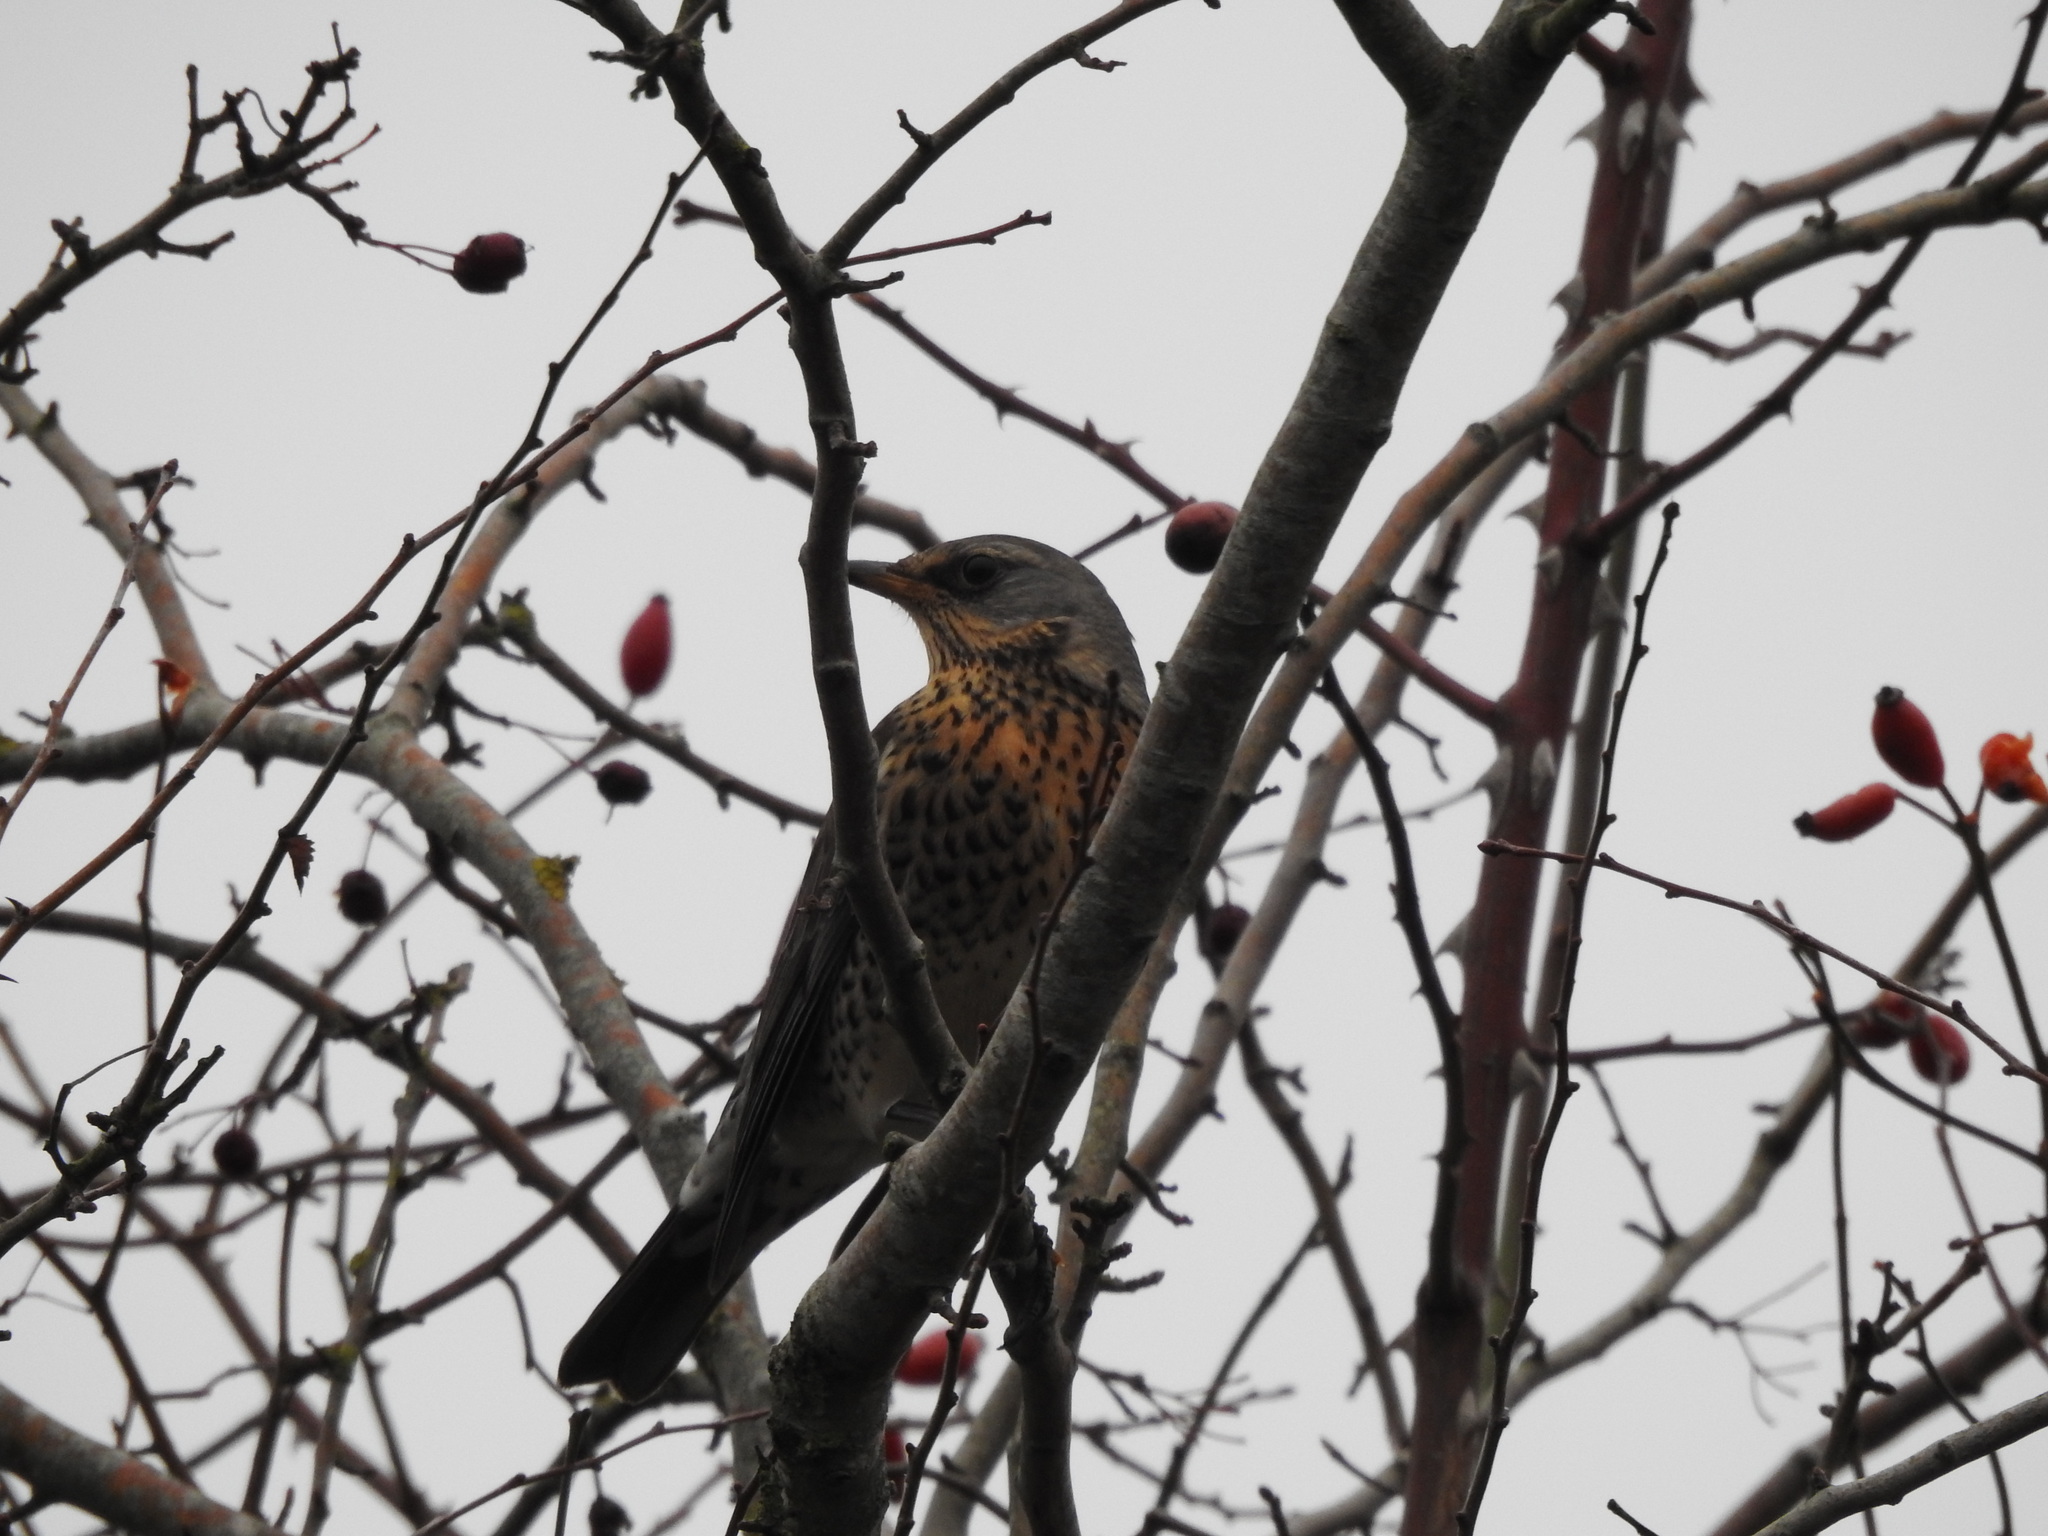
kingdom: Animalia
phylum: Chordata
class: Aves
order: Passeriformes
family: Turdidae
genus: Turdus
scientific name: Turdus pilaris
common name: Fieldfare
